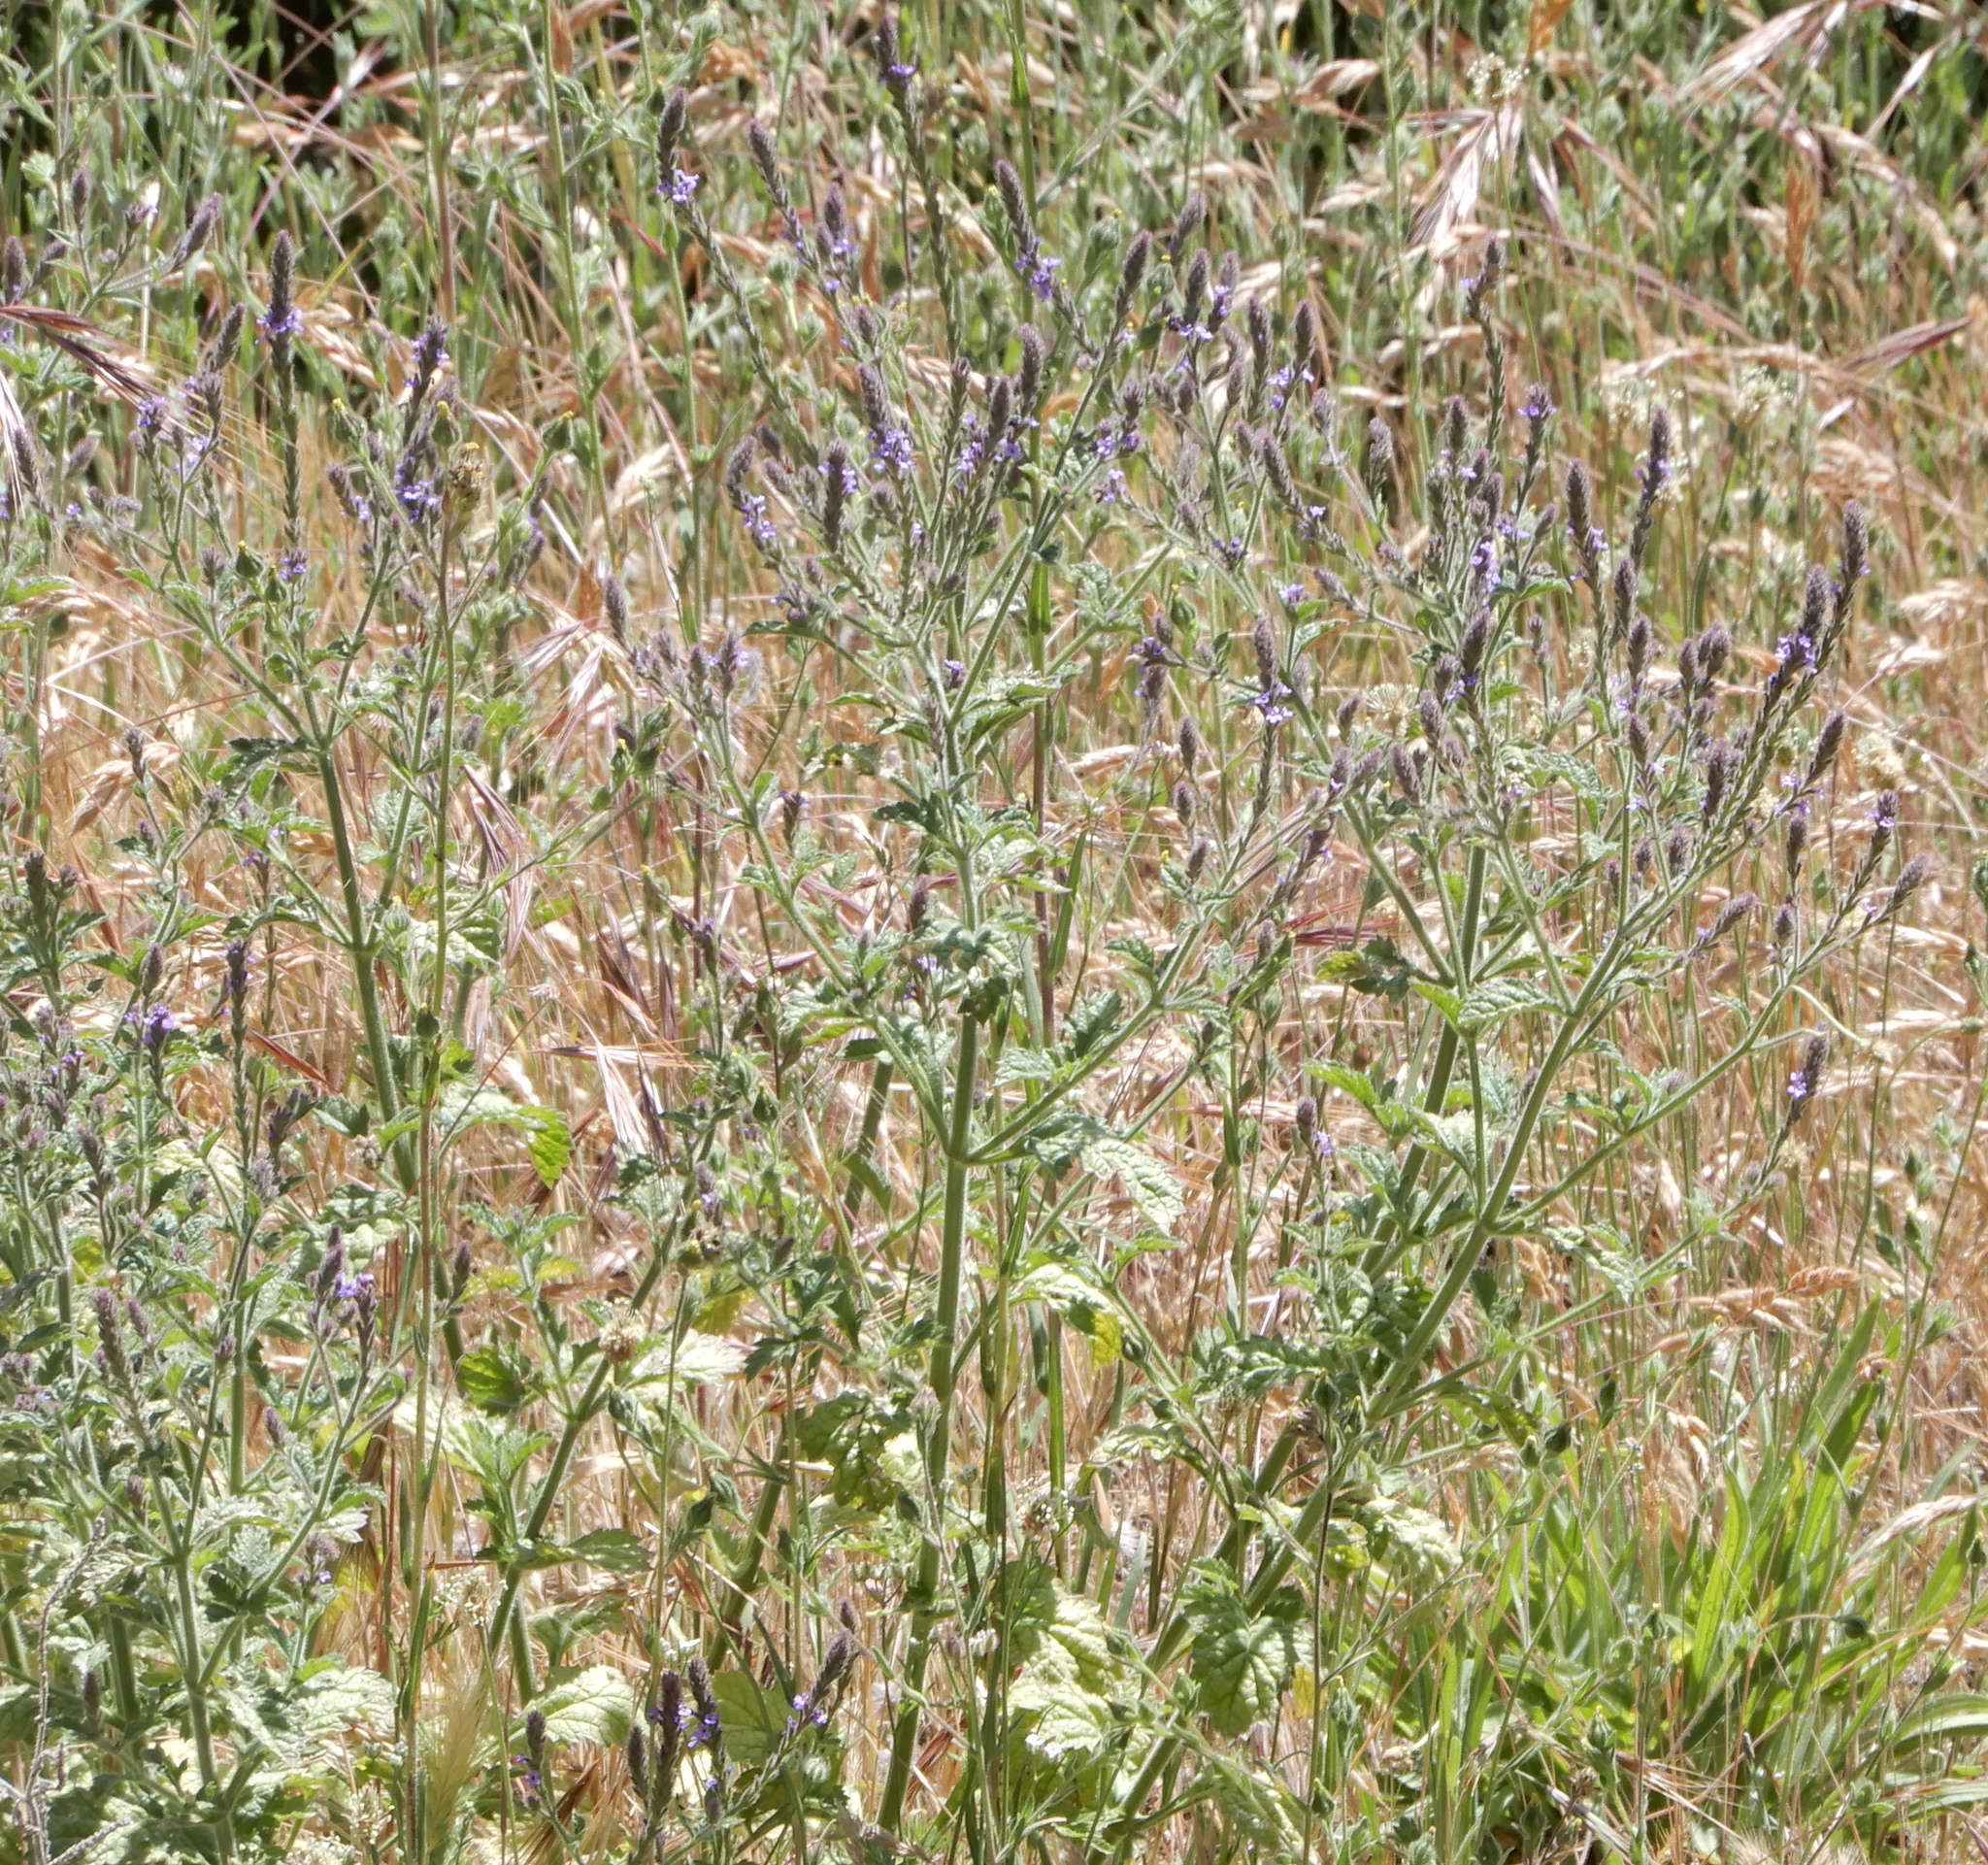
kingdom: Plantae
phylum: Tracheophyta
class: Magnoliopsida
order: Lamiales
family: Verbenaceae
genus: Verbena
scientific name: Verbena lasiostachys
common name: Vervain
